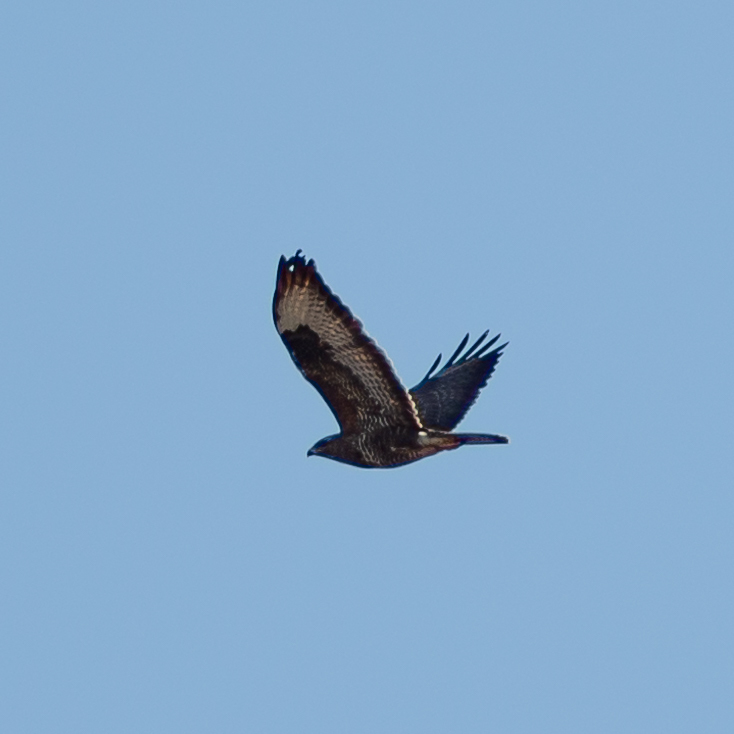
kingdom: Animalia
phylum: Chordata
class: Aves
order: Accipitriformes
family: Accipitridae
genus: Buteo
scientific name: Buteo buteo
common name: Common buzzard
